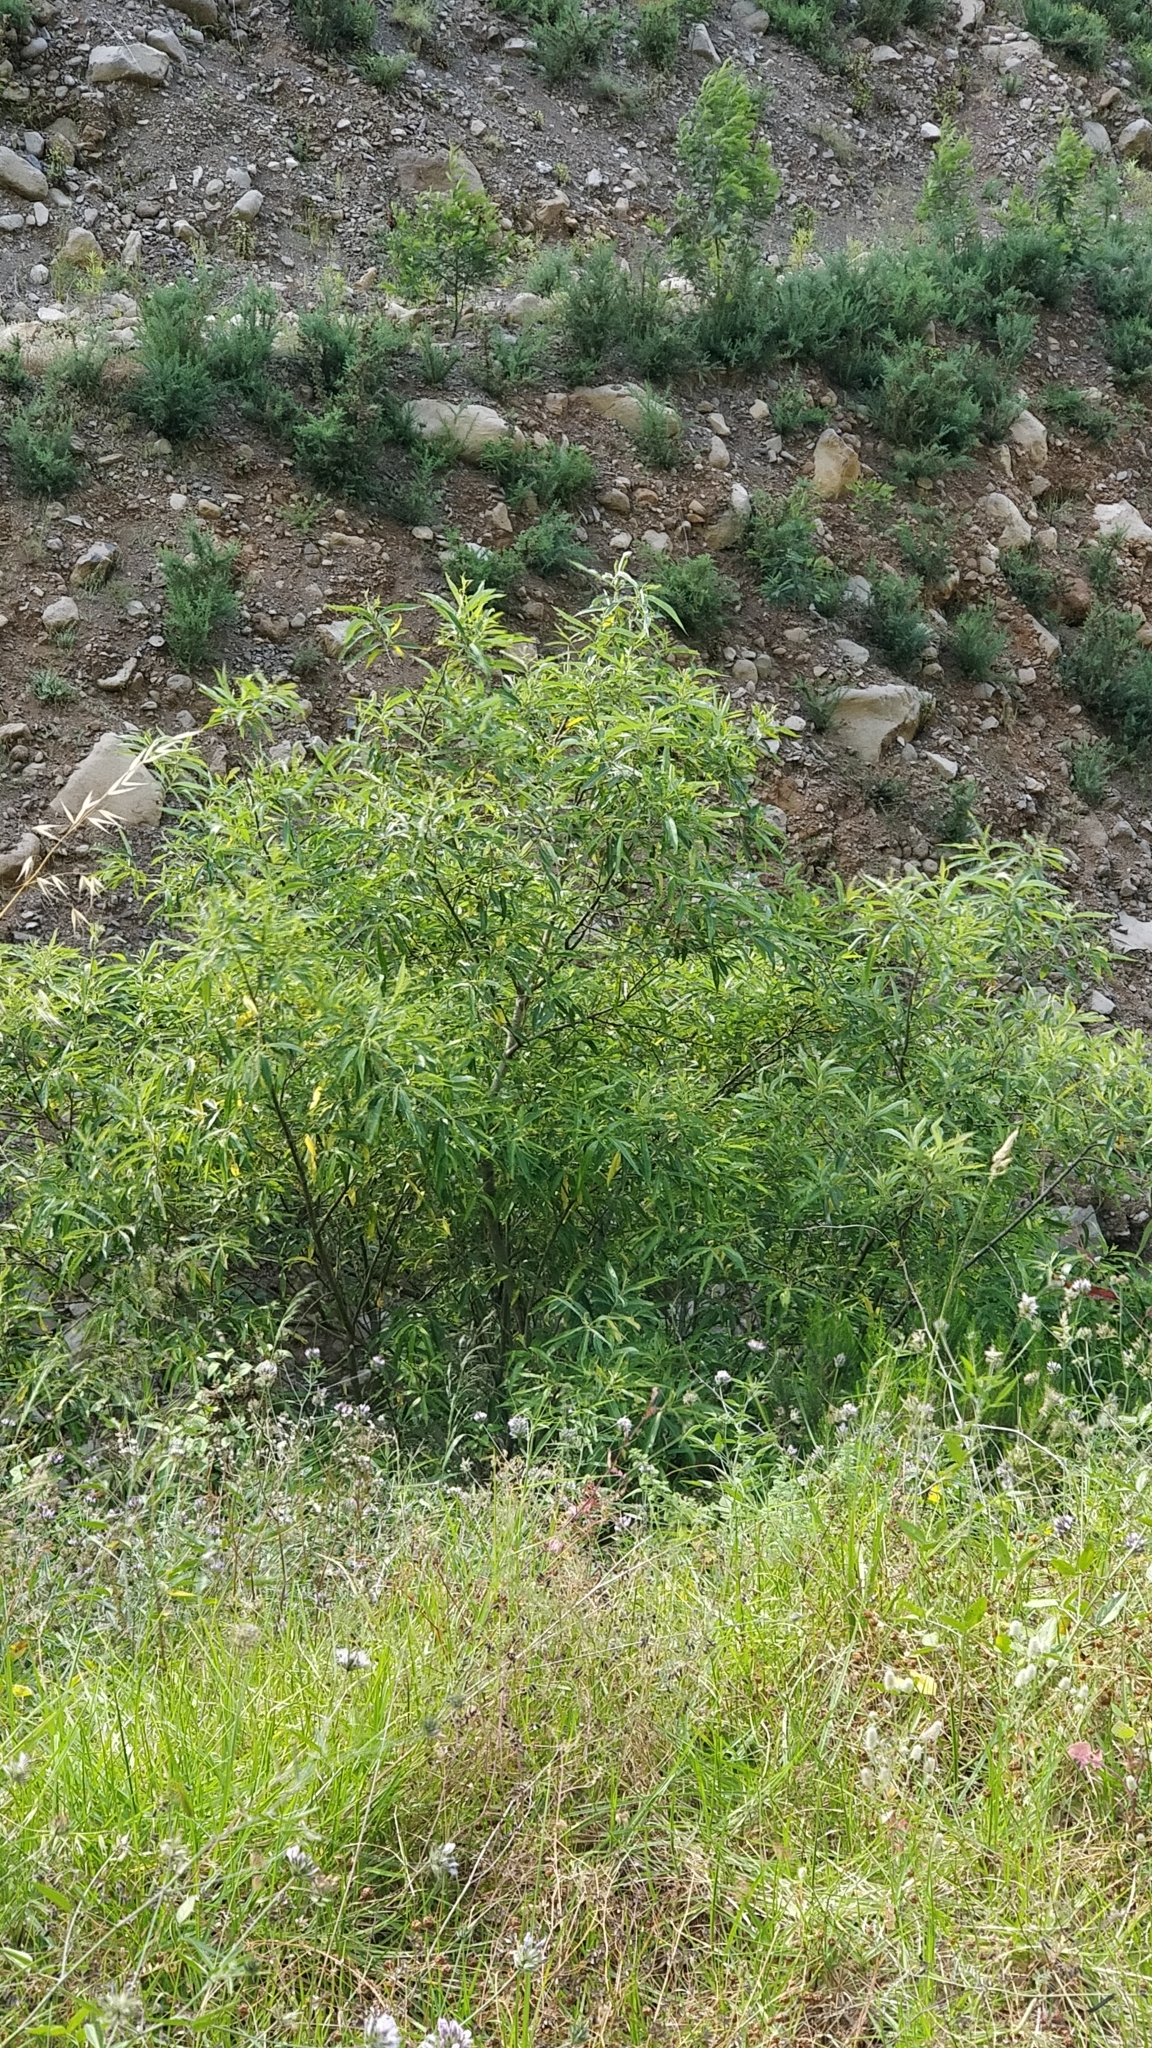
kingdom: Plantae
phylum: Tracheophyta
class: Magnoliopsida
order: Malpighiales
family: Salicaceae
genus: Salix
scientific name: Salix canariensis
